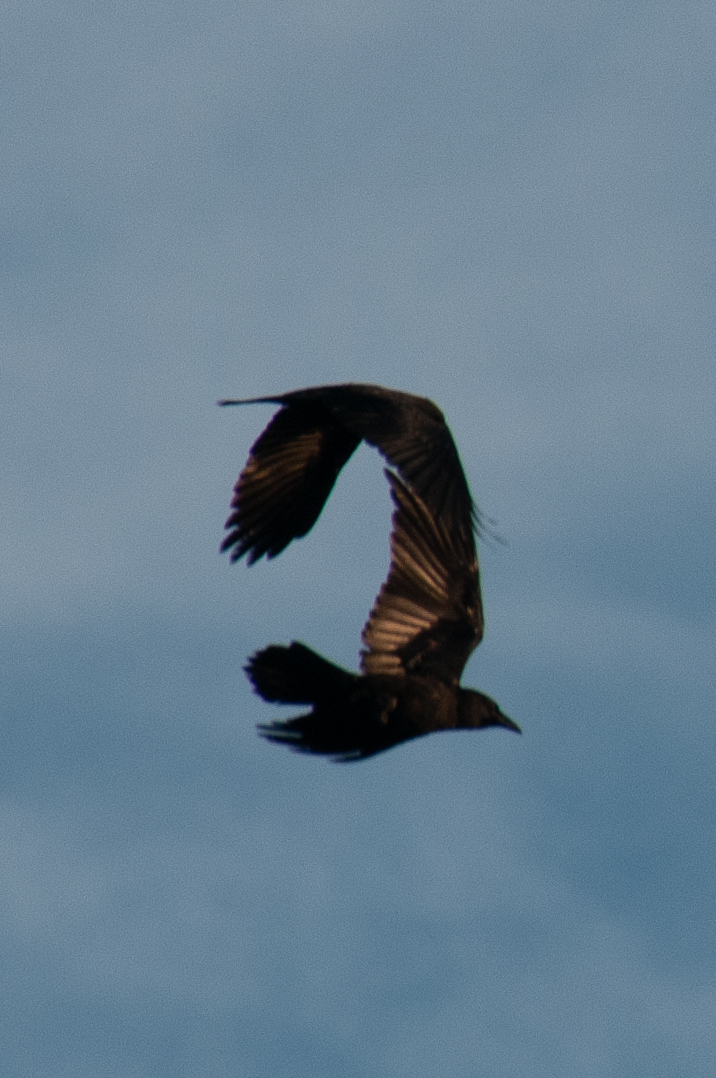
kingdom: Animalia
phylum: Chordata
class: Aves
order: Passeriformes
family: Corvidae
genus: Corvus
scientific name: Corvus corax
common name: Common raven
